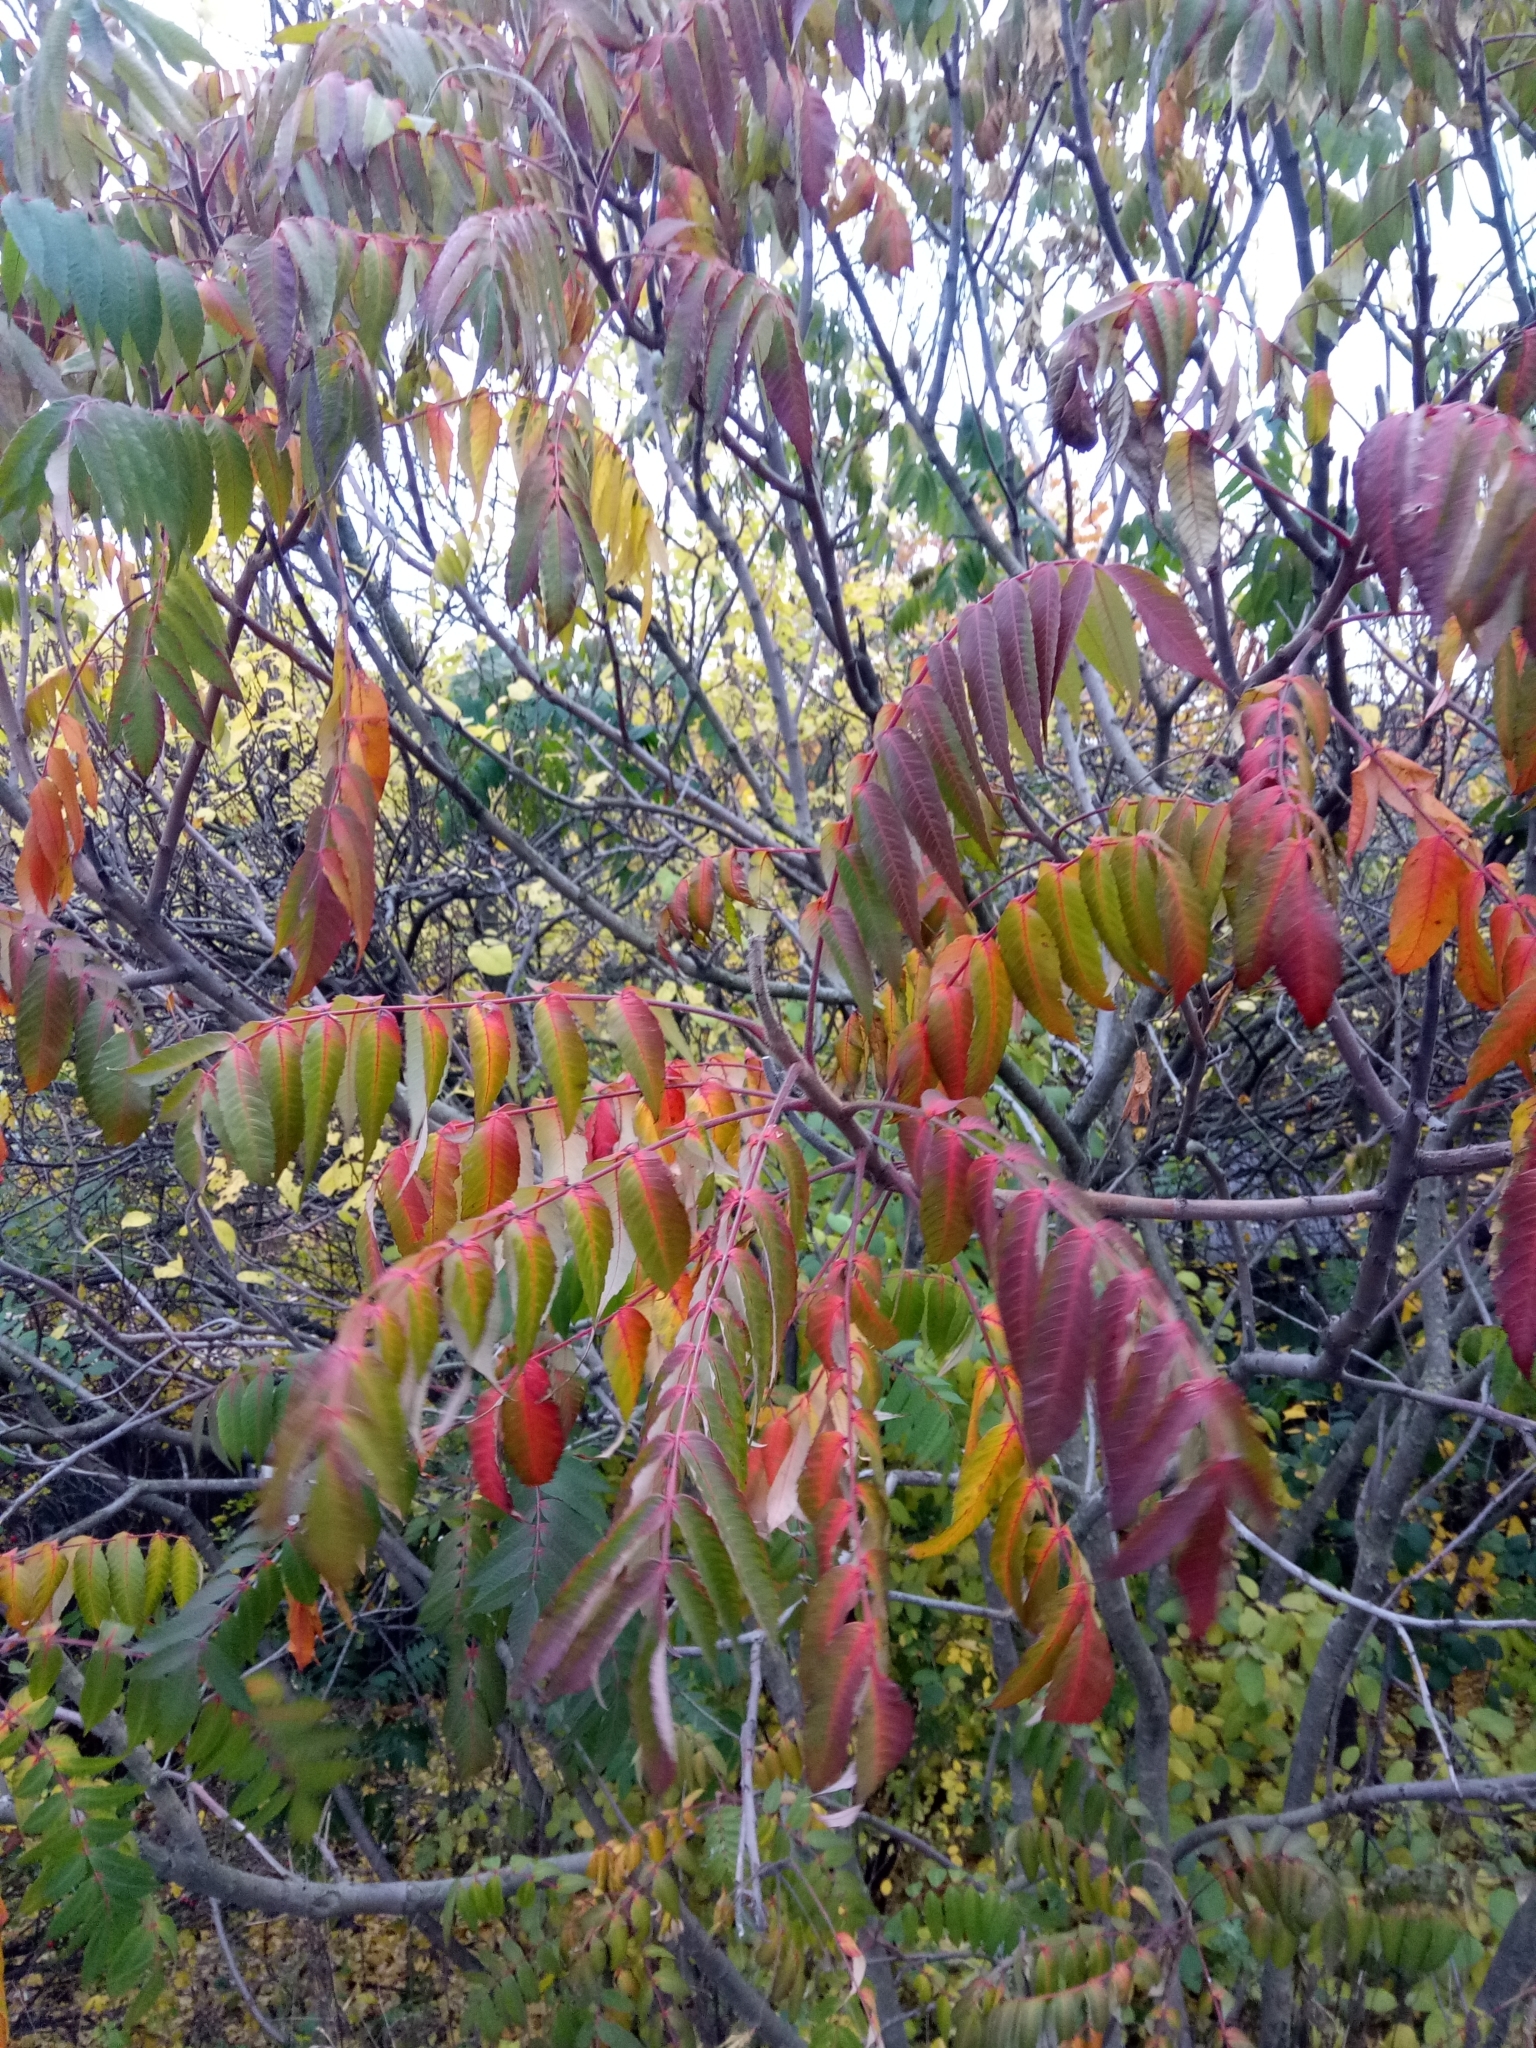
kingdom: Plantae
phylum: Tracheophyta
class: Magnoliopsida
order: Sapindales
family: Anacardiaceae
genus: Rhus
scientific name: Rhus typhina
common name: Staghorn sumac
